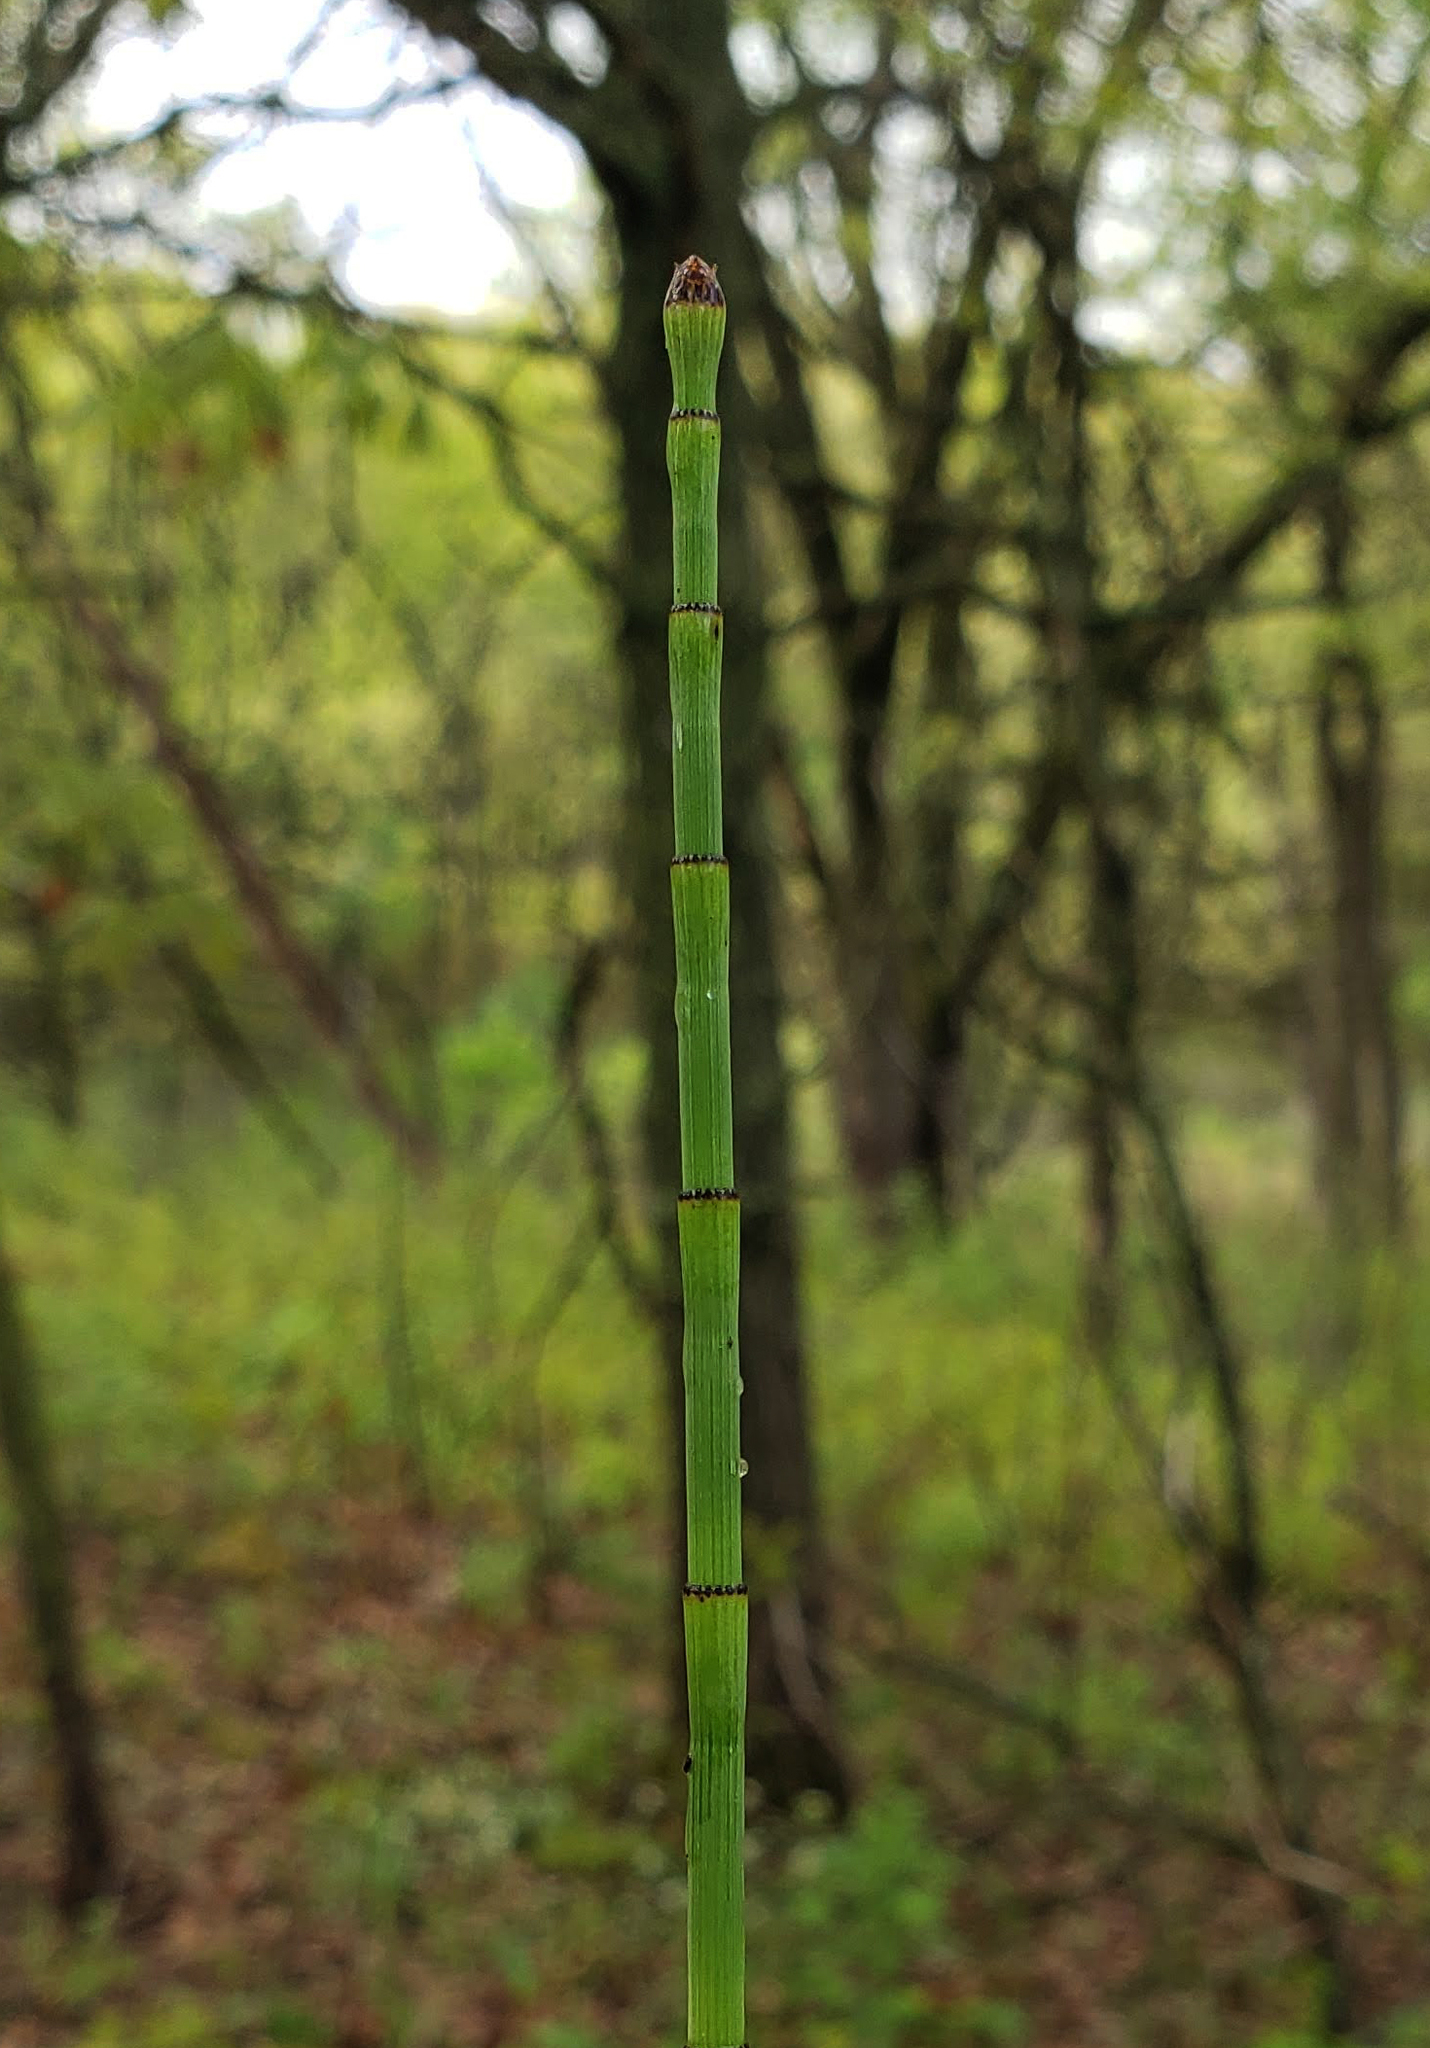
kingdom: Plantae
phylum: Tracheophyta
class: Polypodiopsida
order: Equisetales
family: Equisetaceae
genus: Equisetum
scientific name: Equisetum laevigatum
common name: Smooth scouring-rush
